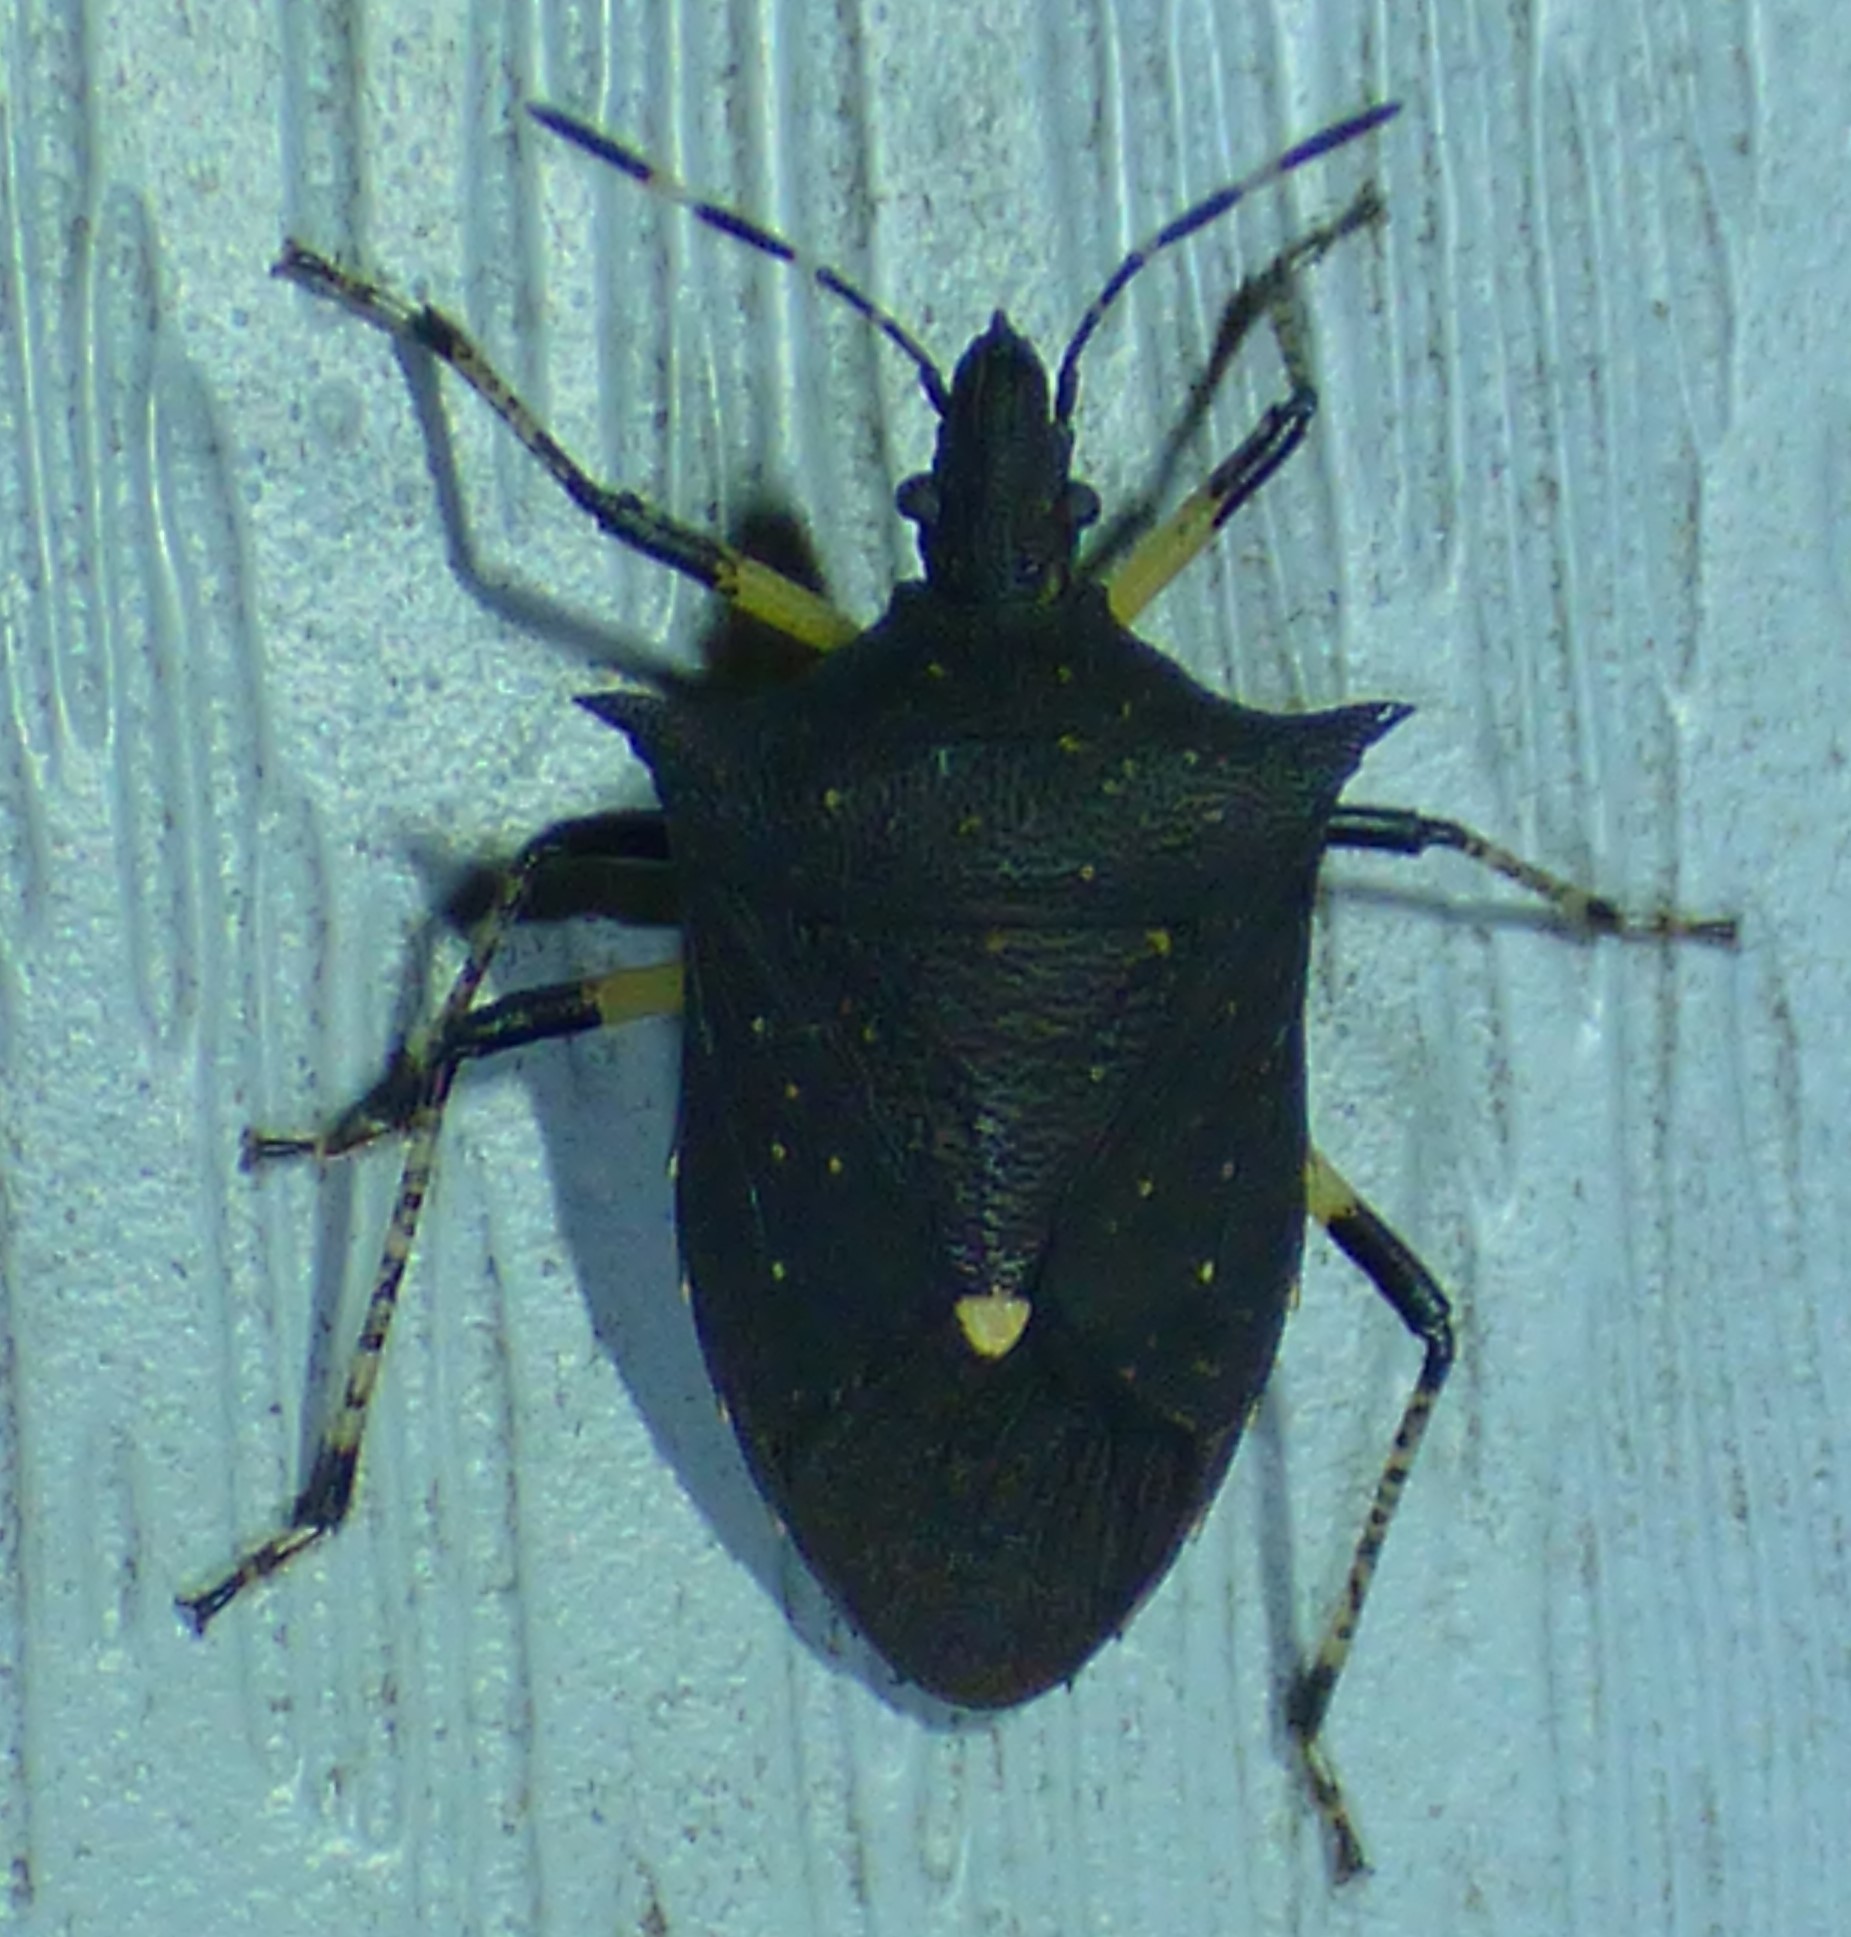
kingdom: Animalia
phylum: Arthropoda
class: Insecta
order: Hemiptera
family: Pentatomidae
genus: Proxys
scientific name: Proxys punctulatus
